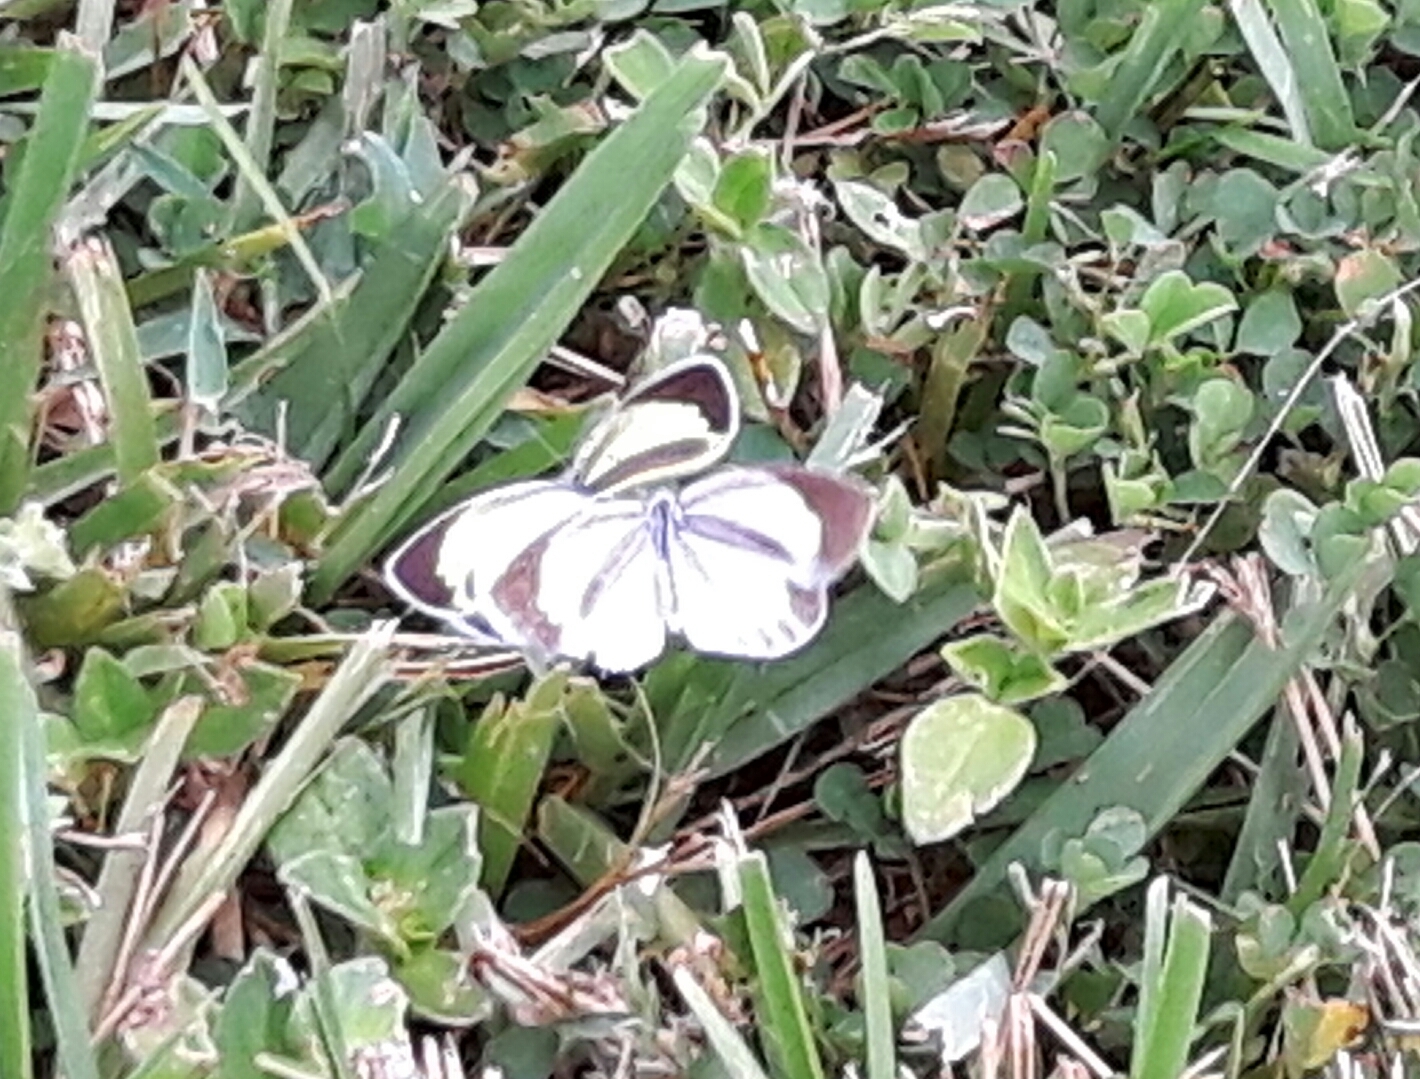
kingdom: Animalia
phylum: Arthropoda
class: Insecta
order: Lepidoptera
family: Pieridae
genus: Eurema
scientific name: Eurema daira
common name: Barred sulphur
